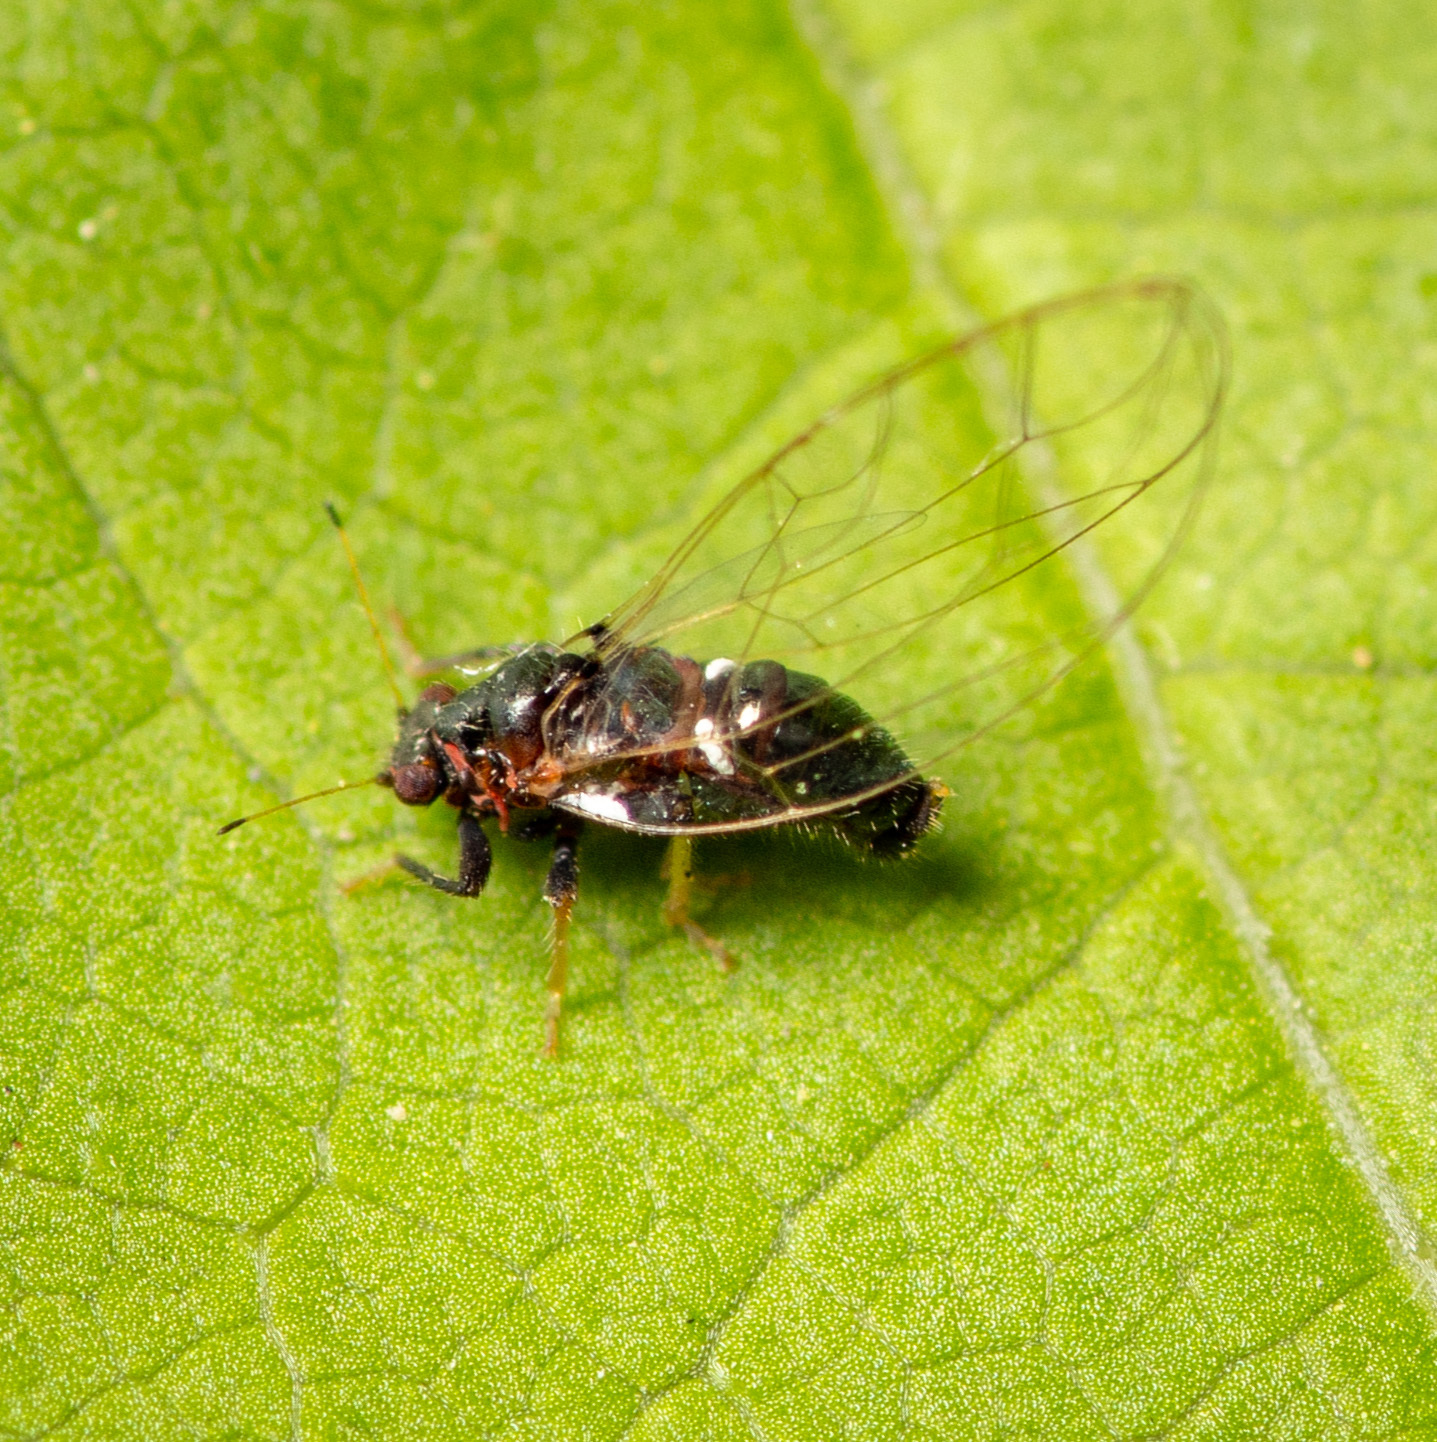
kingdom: Animalia
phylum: Arthropoda
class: Insecta
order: Hemiptera
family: Triozidae
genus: Baeoalitriozus
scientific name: Baeoalitriozus diospyri
